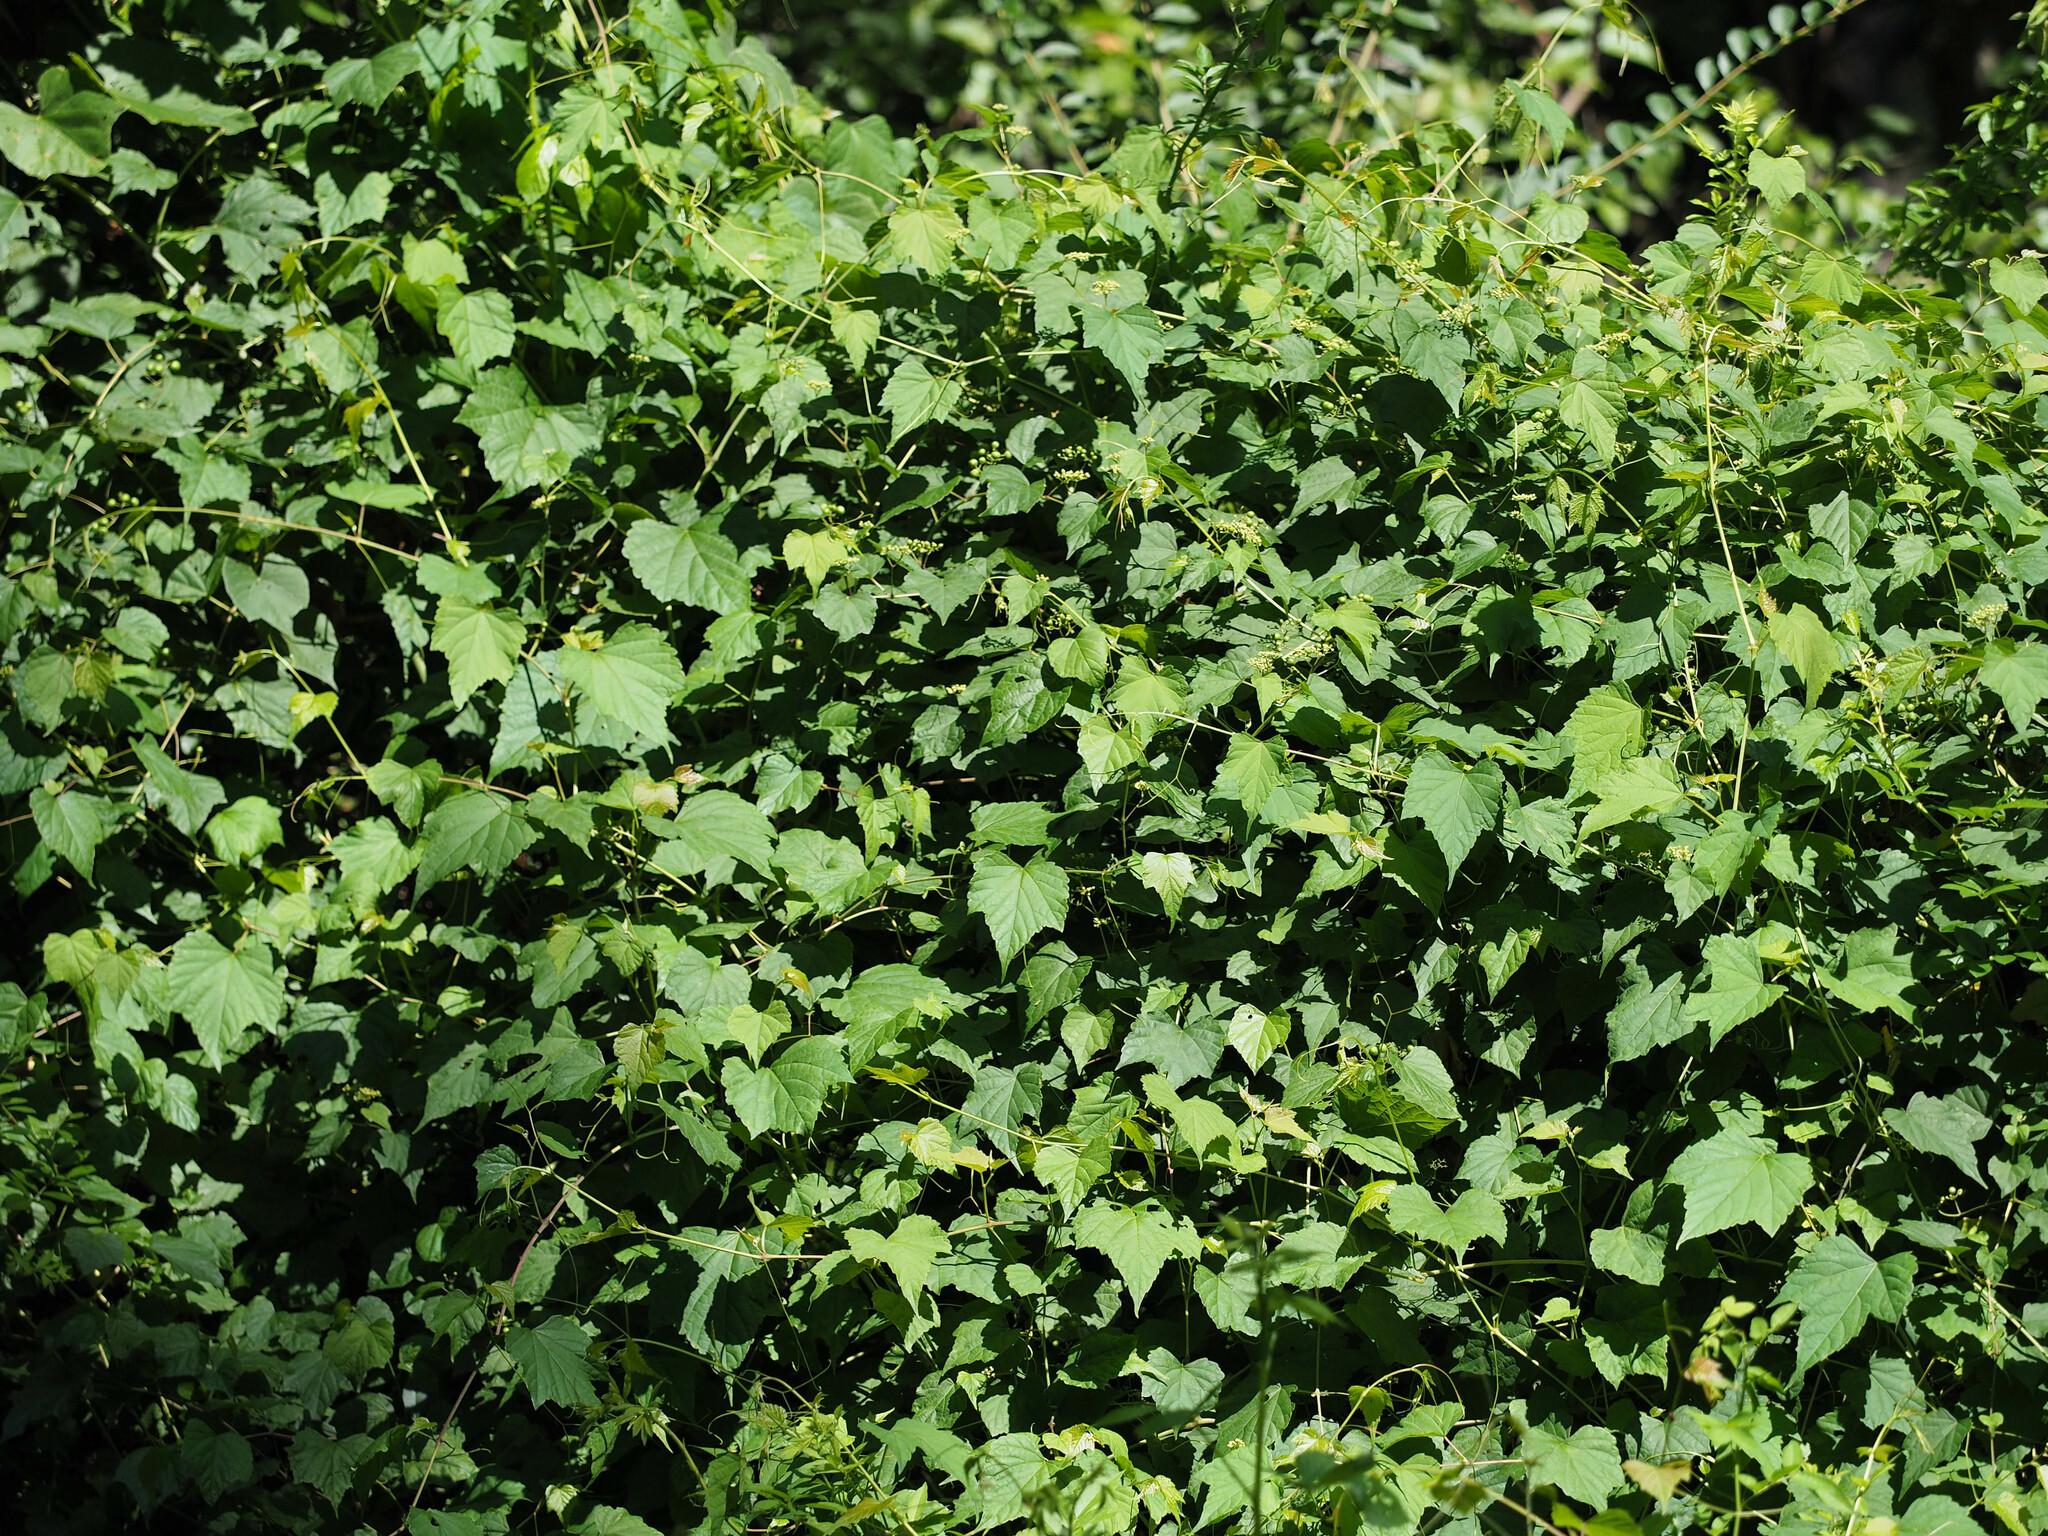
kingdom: Plantae
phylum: Tracheophyta
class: Magnoliopsida
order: Vitales
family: Vitaceae
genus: Ampelopsis
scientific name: Ampelopsis glandulosa
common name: Amur peppervine
